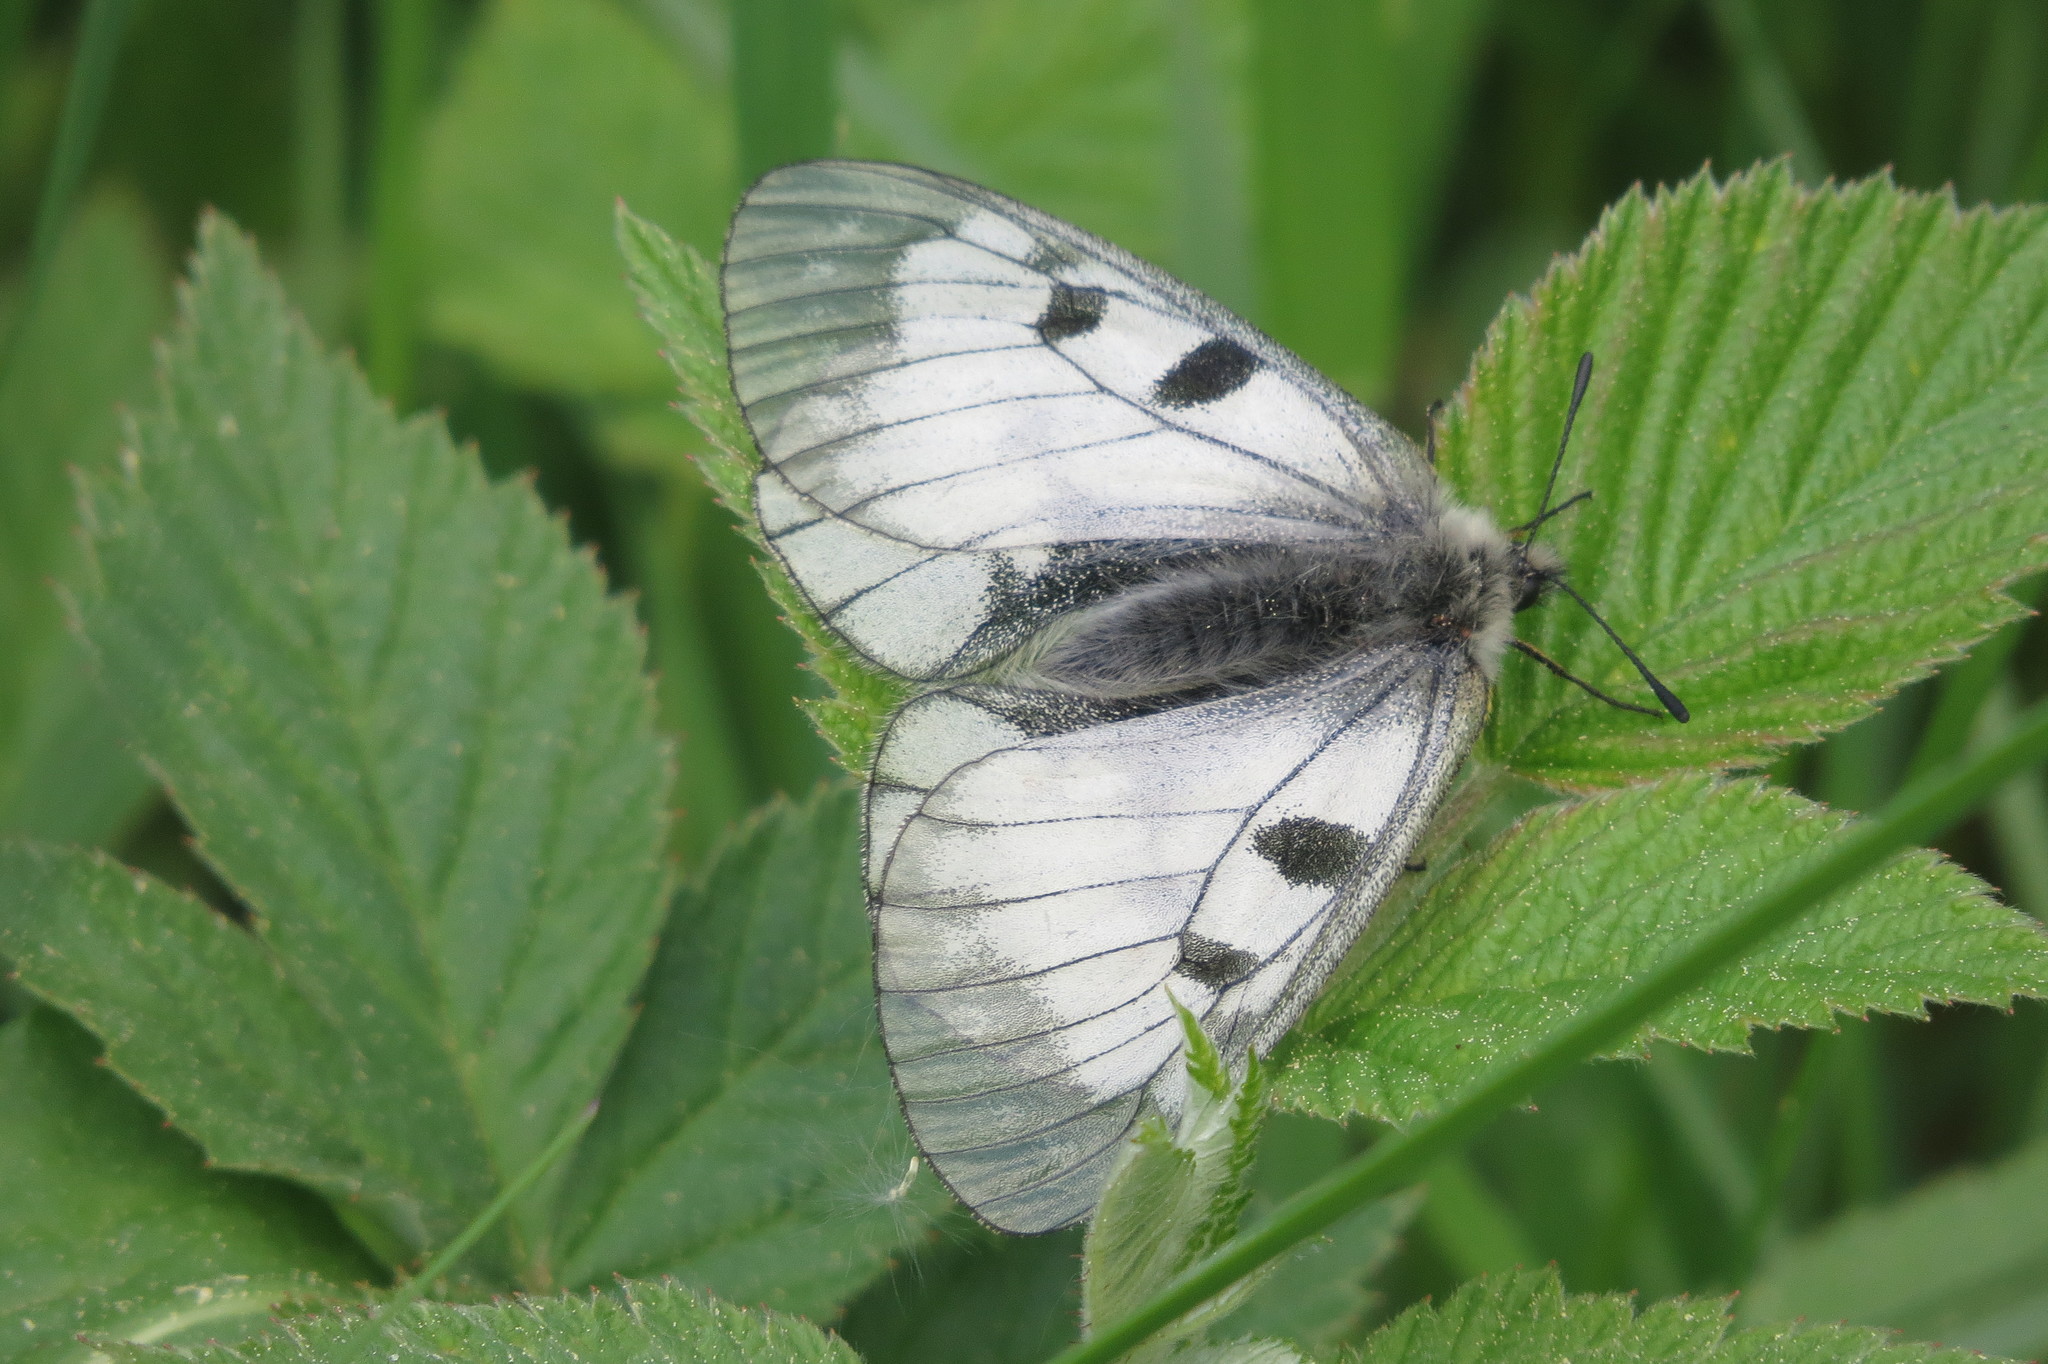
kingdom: Animalia
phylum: Arthropoda
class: Insecta
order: Lepidoptera
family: Papilionidae
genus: Parnassius
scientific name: Parnassius mnemosyne
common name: Clouded apollo
